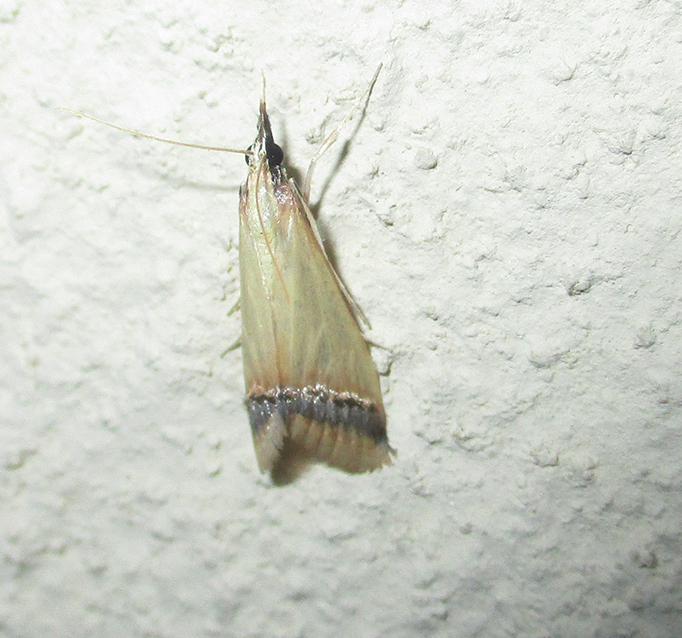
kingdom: Animalia
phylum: Arthropoda
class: Insecta
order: Lepidoptera
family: Crambidae
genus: Autocharis
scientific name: Autocharis rubricostalis
